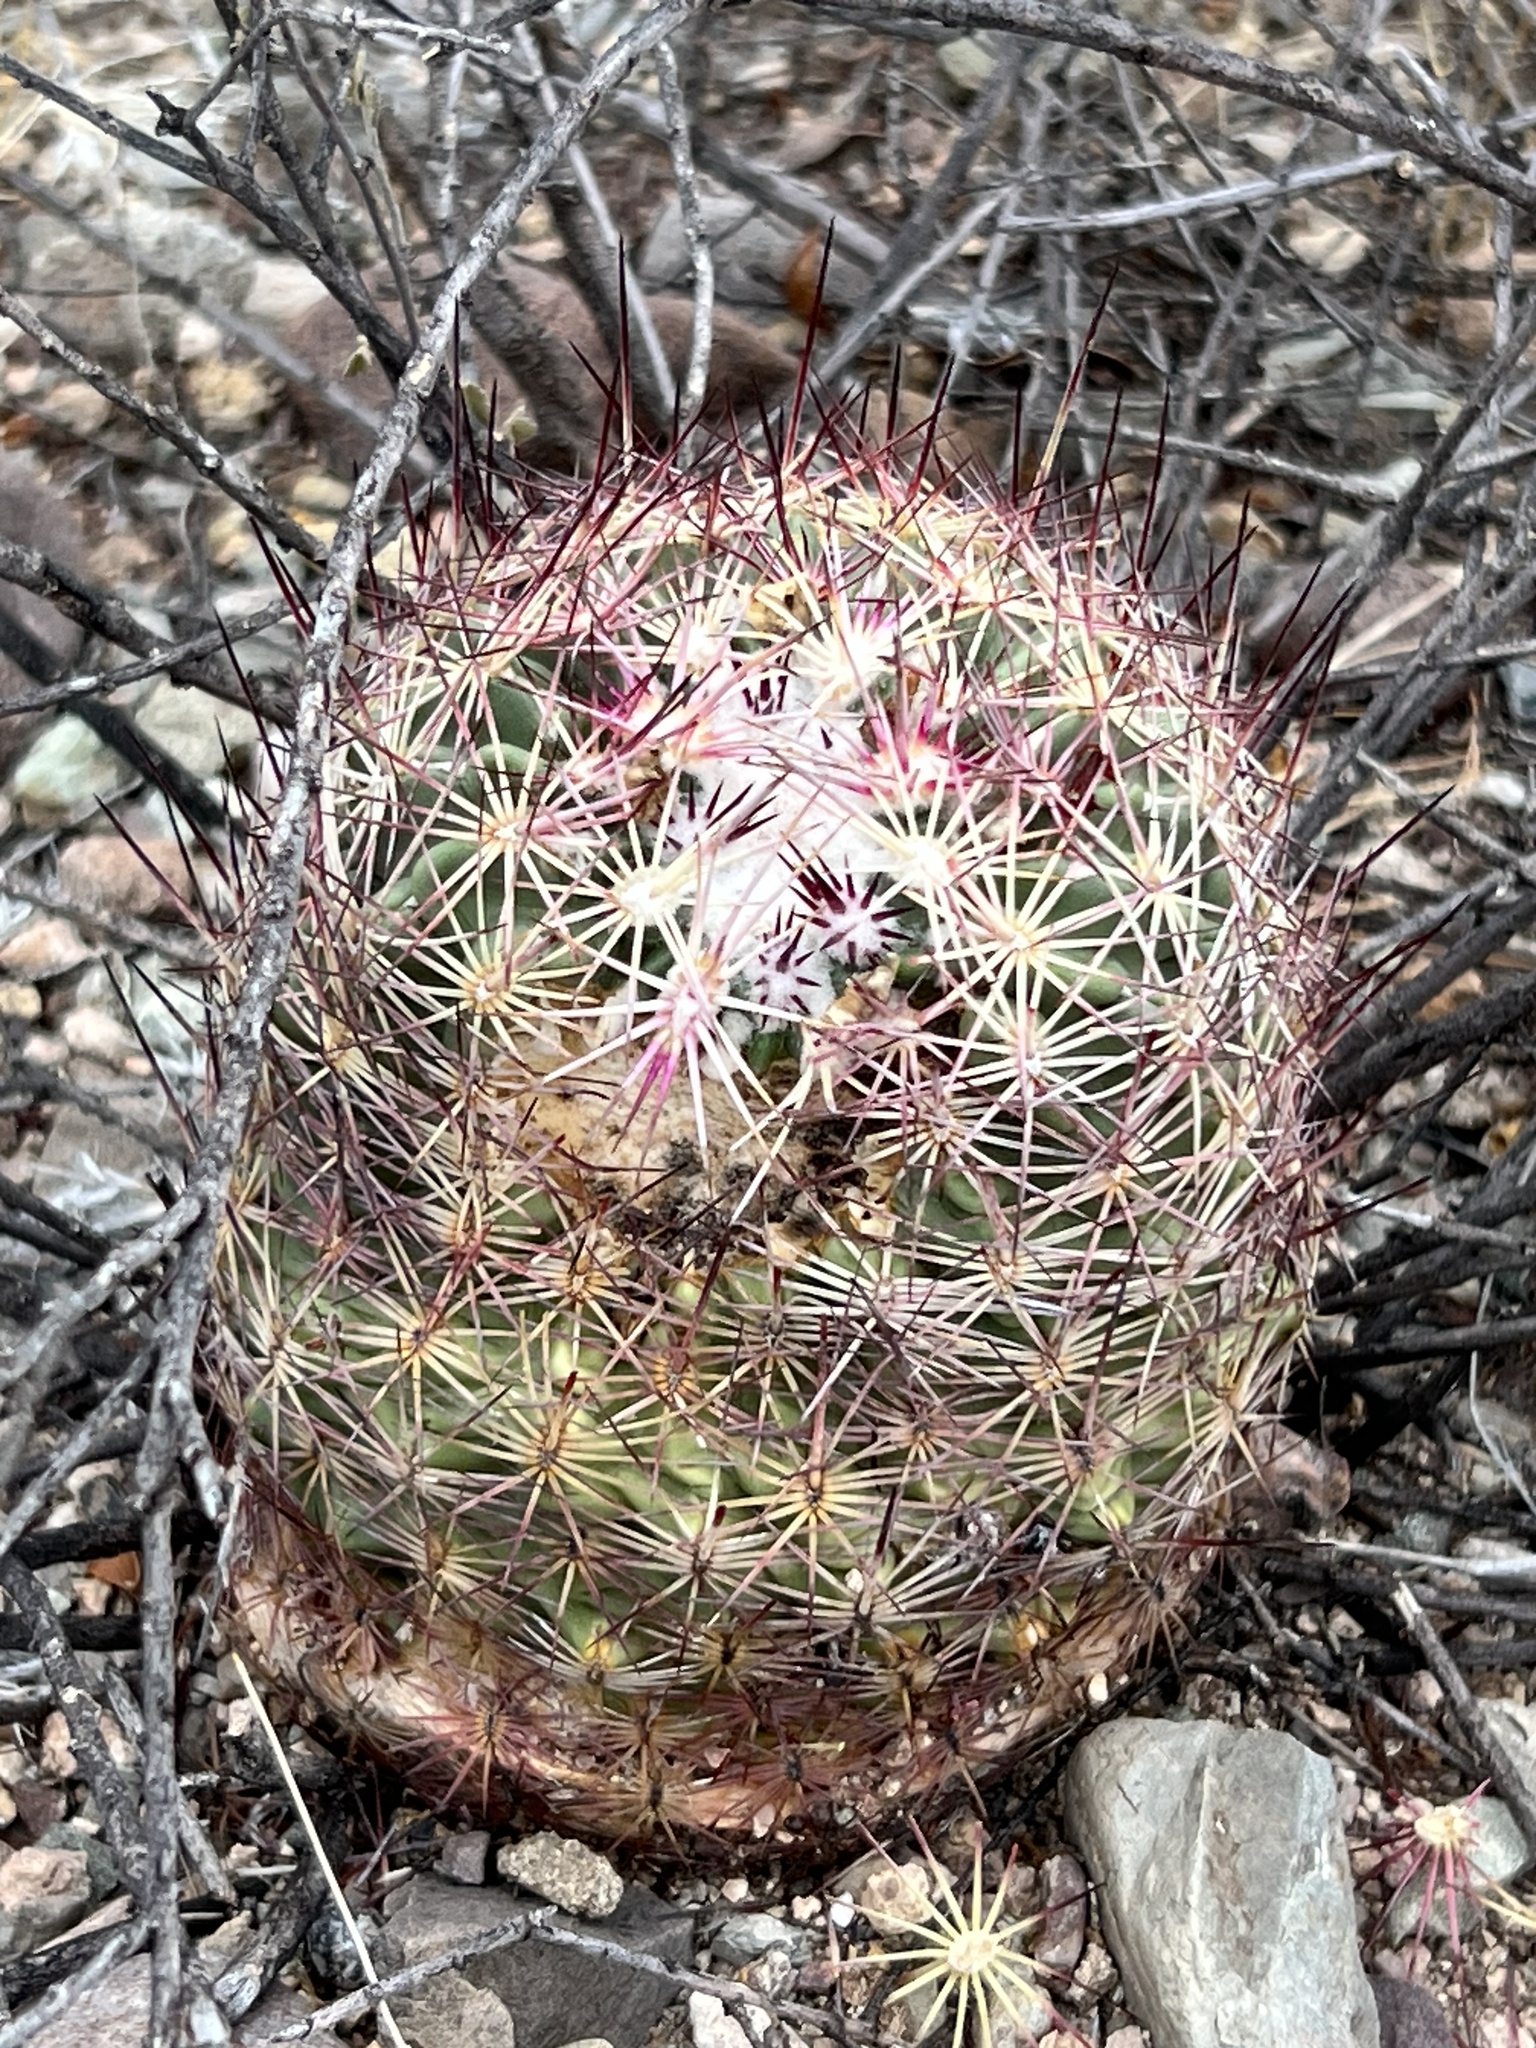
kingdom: Plantae
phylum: Tracheophyta
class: Magnoliopsida
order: Caryophyllales
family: Cactaceae
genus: Sclerocactus
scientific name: Sclerocactus johnsonii
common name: Eight-spine fishhook cactus
